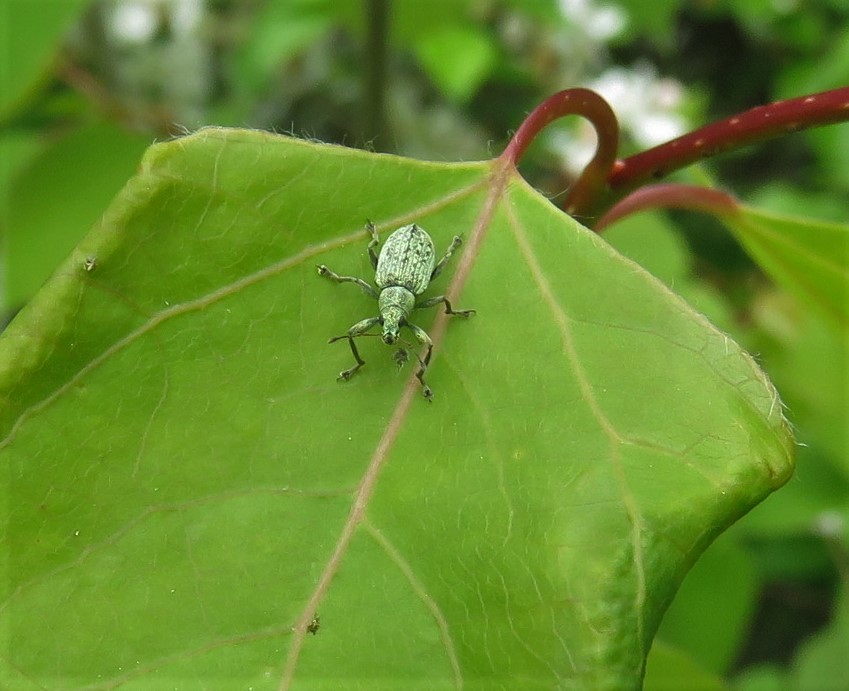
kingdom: Animalia
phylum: Arthropoda
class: Insecta
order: Coleoptera
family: Curculionidae
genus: Polydrusus
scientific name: Polydrusus cervinus
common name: Weevil
